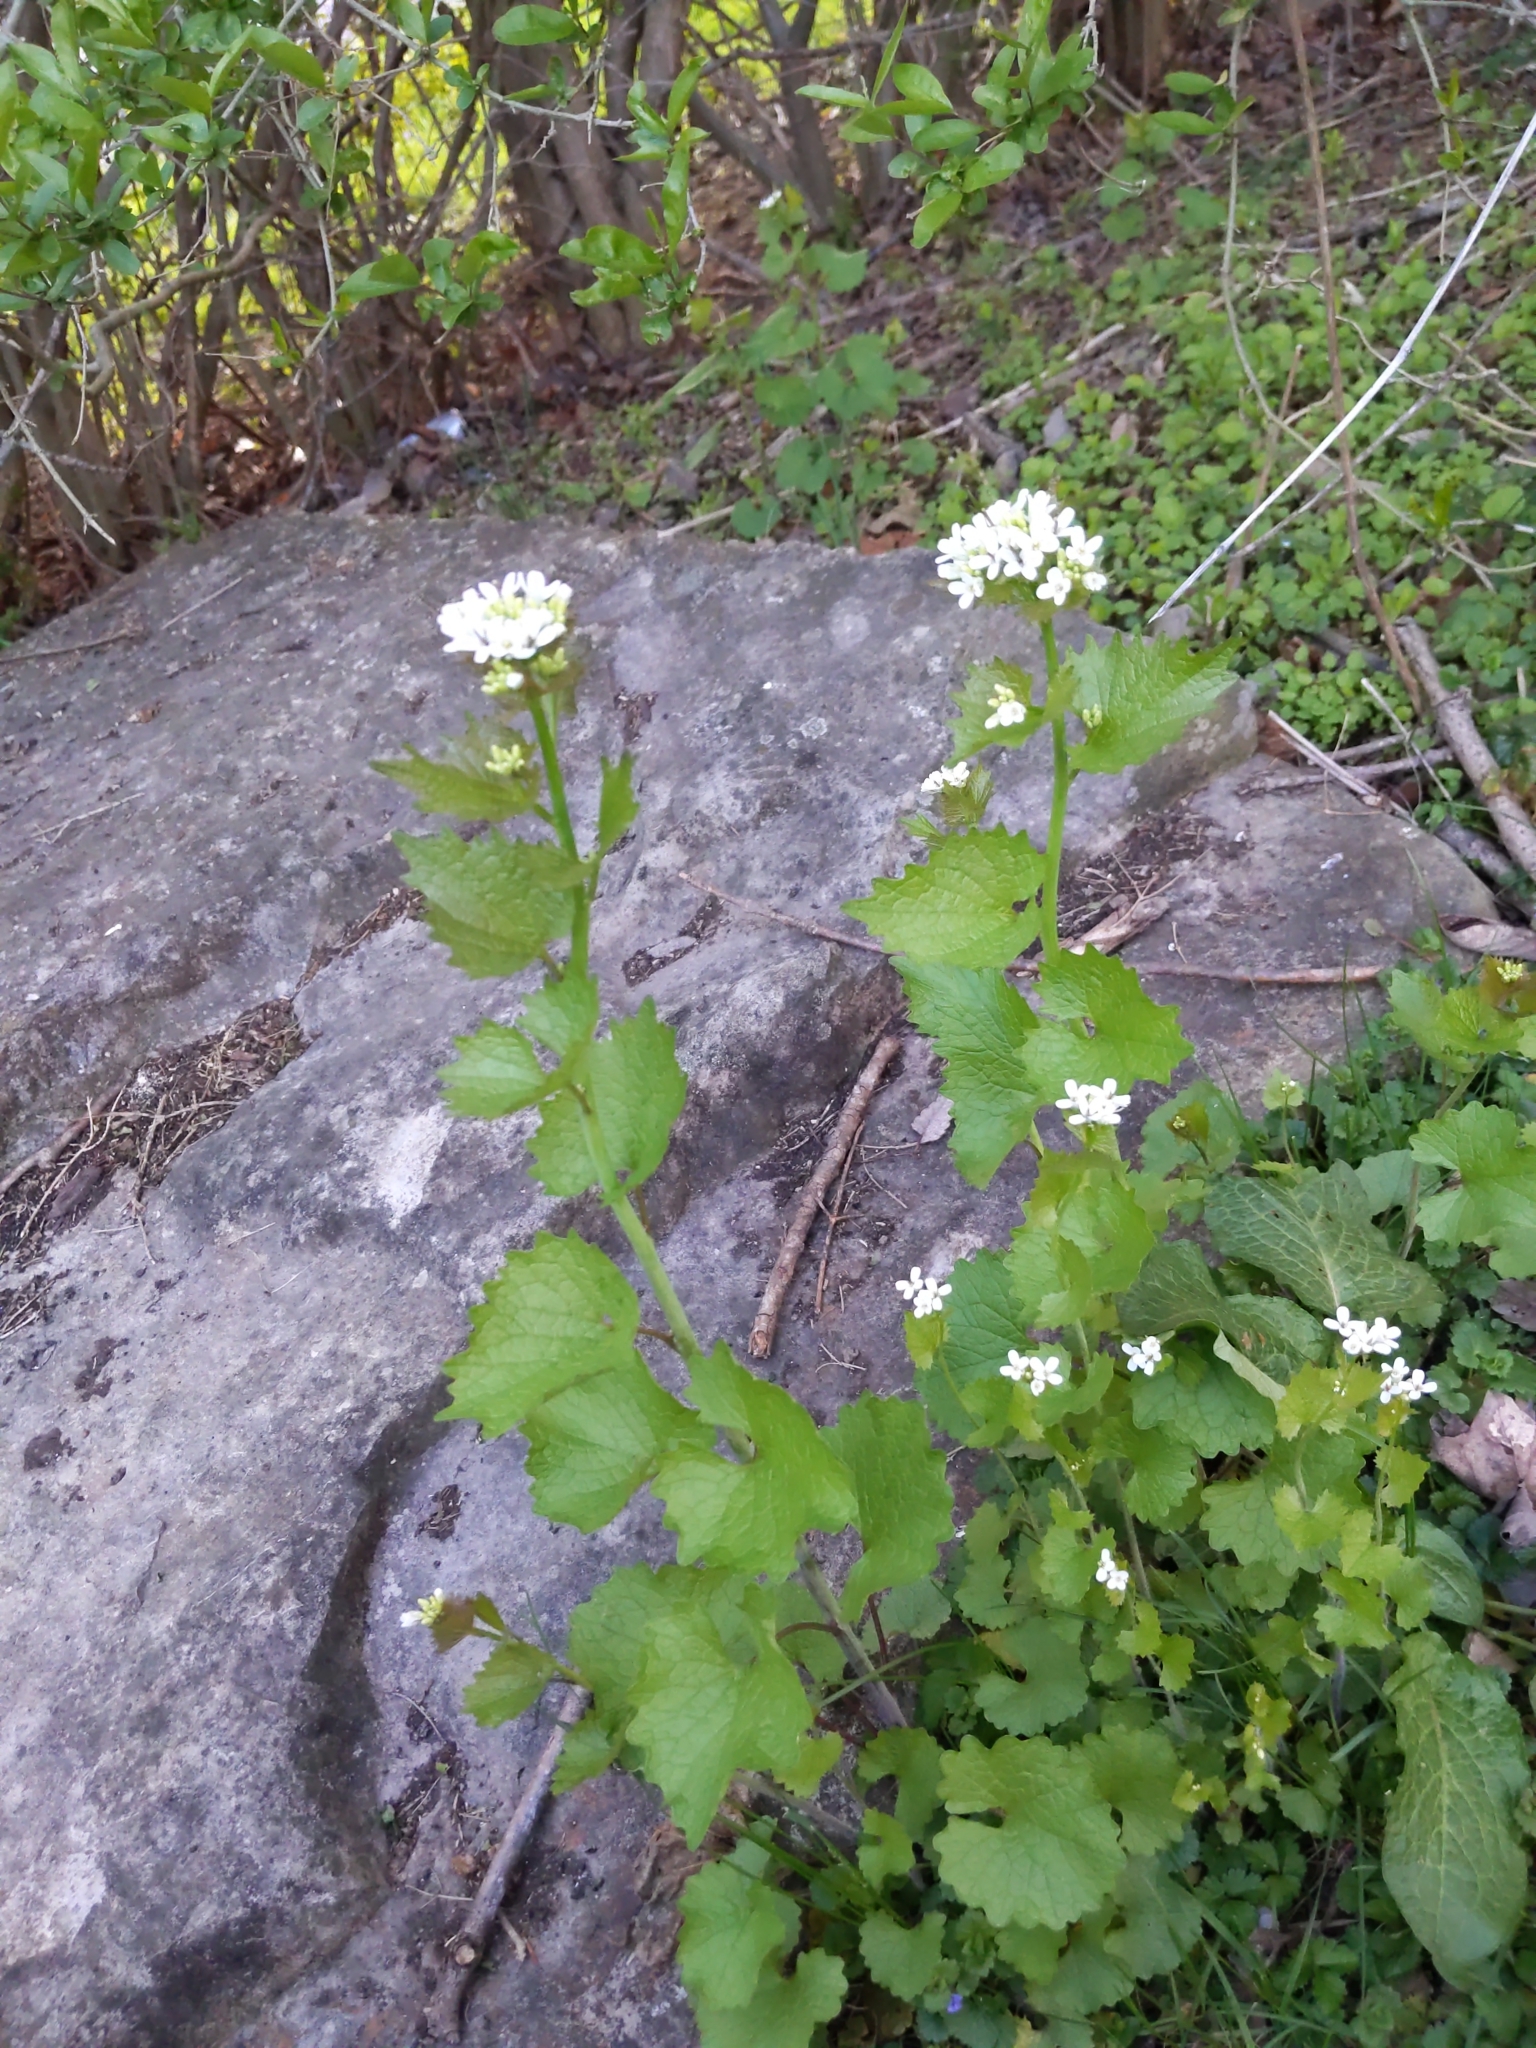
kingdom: Plantae
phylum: Tracheophyta
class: Magnoliopsida
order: Brassicales
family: Brassicaceae
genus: Alliaria
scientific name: Alliaria petiolata
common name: Garlic mustard
